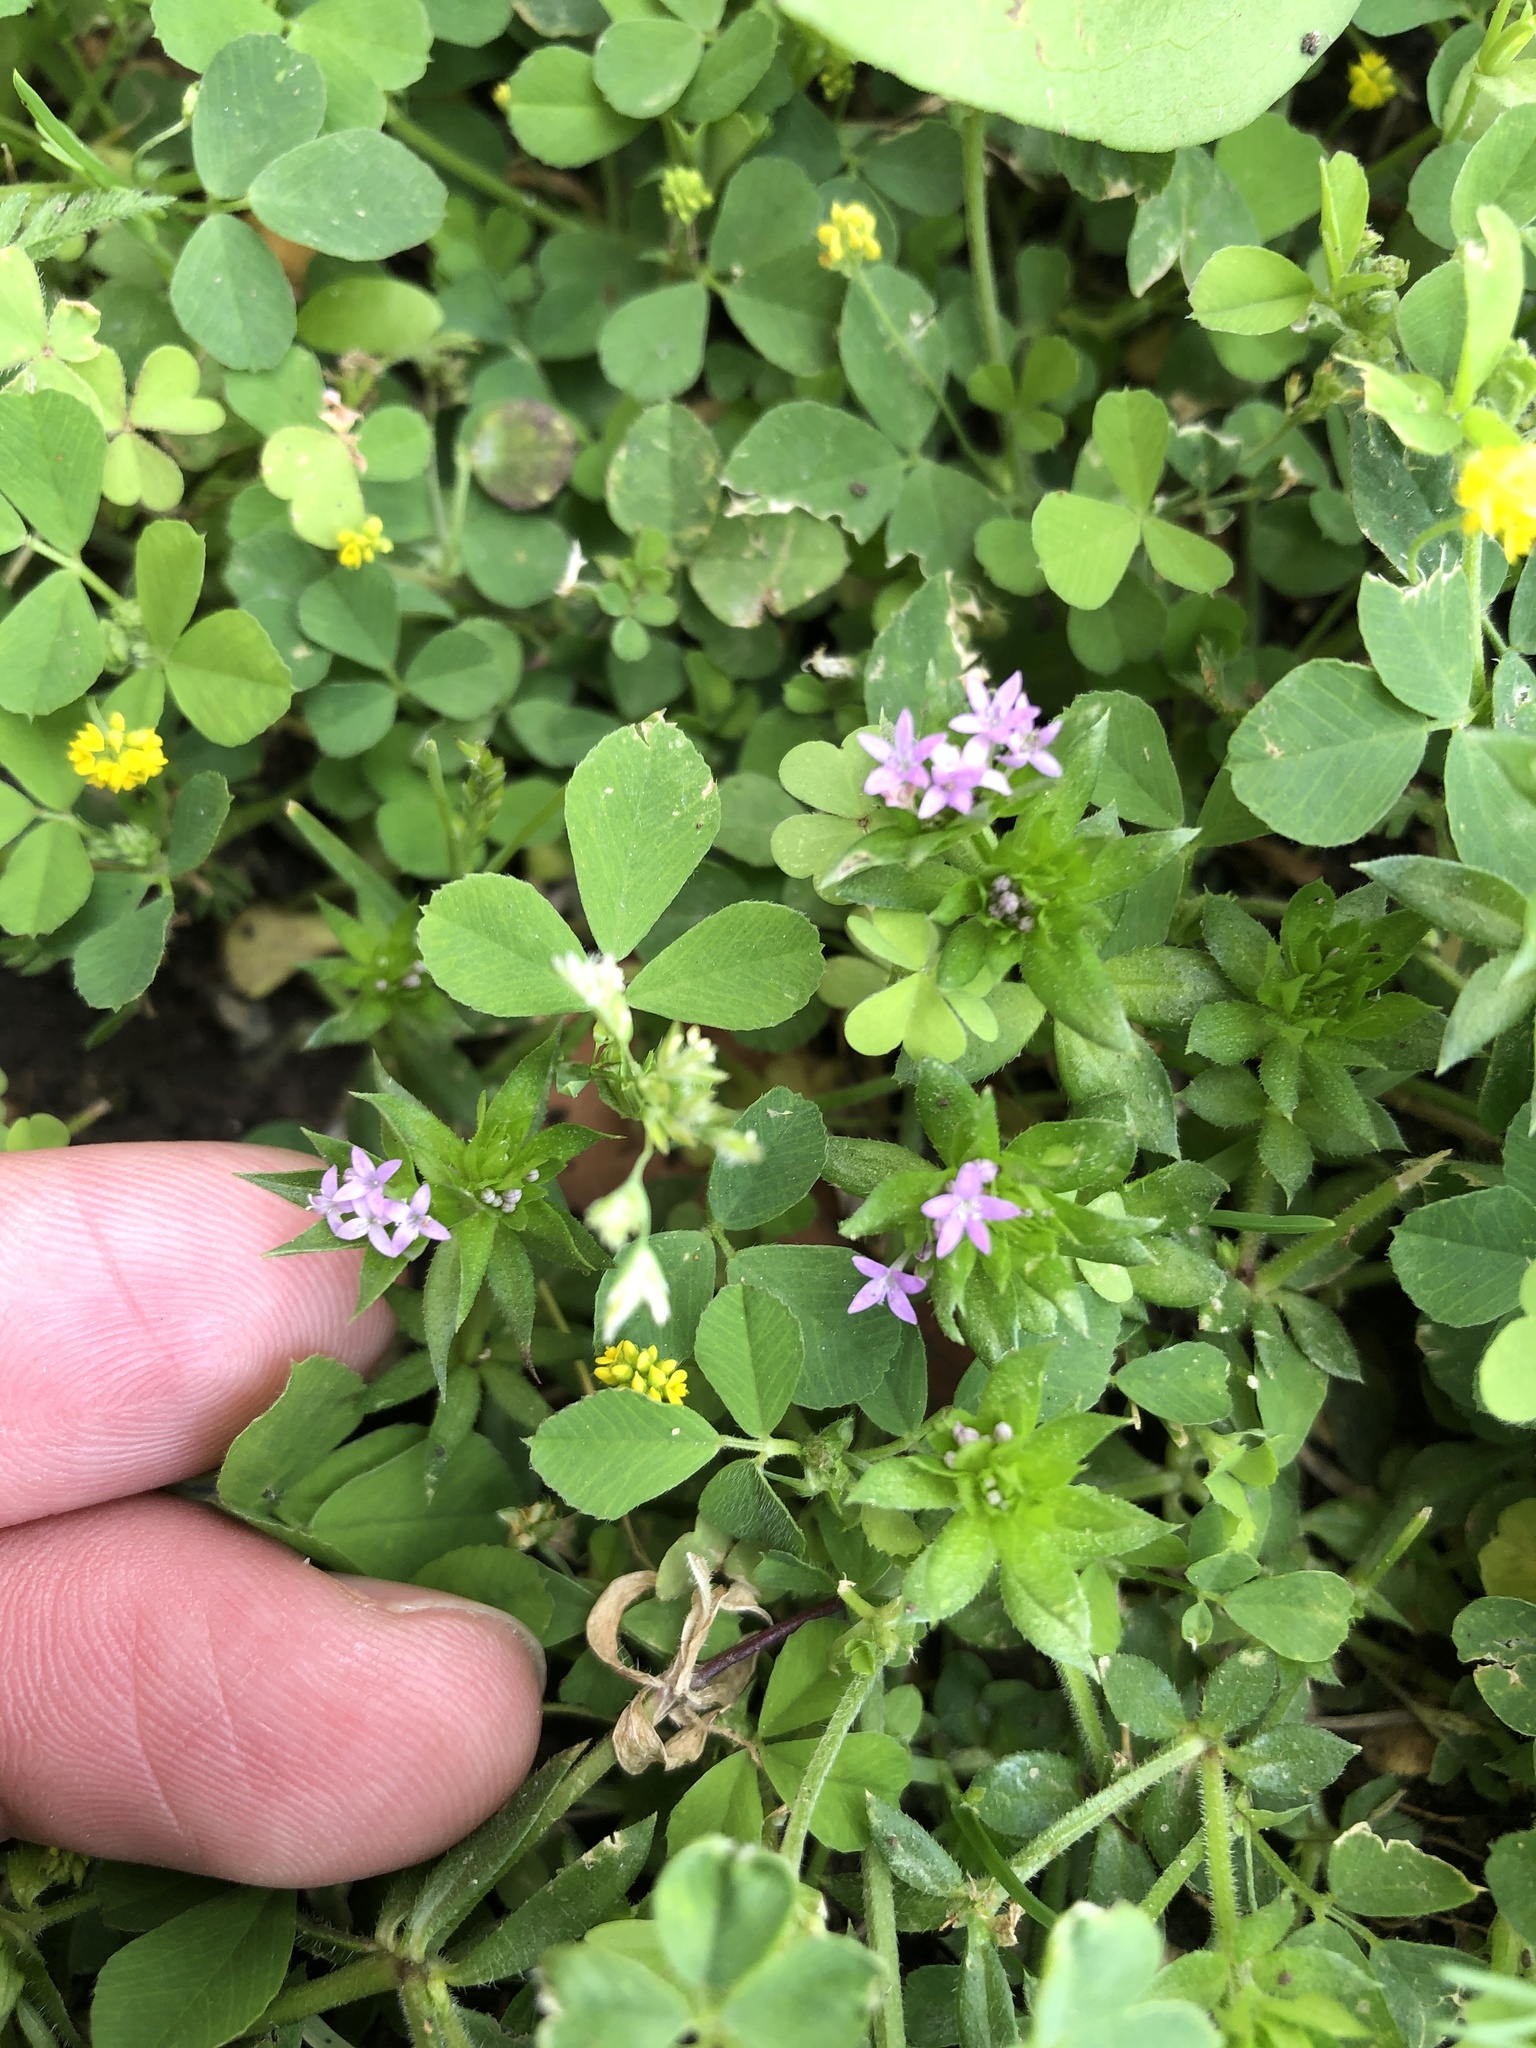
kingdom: Plantae
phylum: Tracheophyta
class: Magnoliopsida
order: Gentianales
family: Rubiaceae
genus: Sherardia
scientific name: Sherardia arvensis
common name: Field madder
